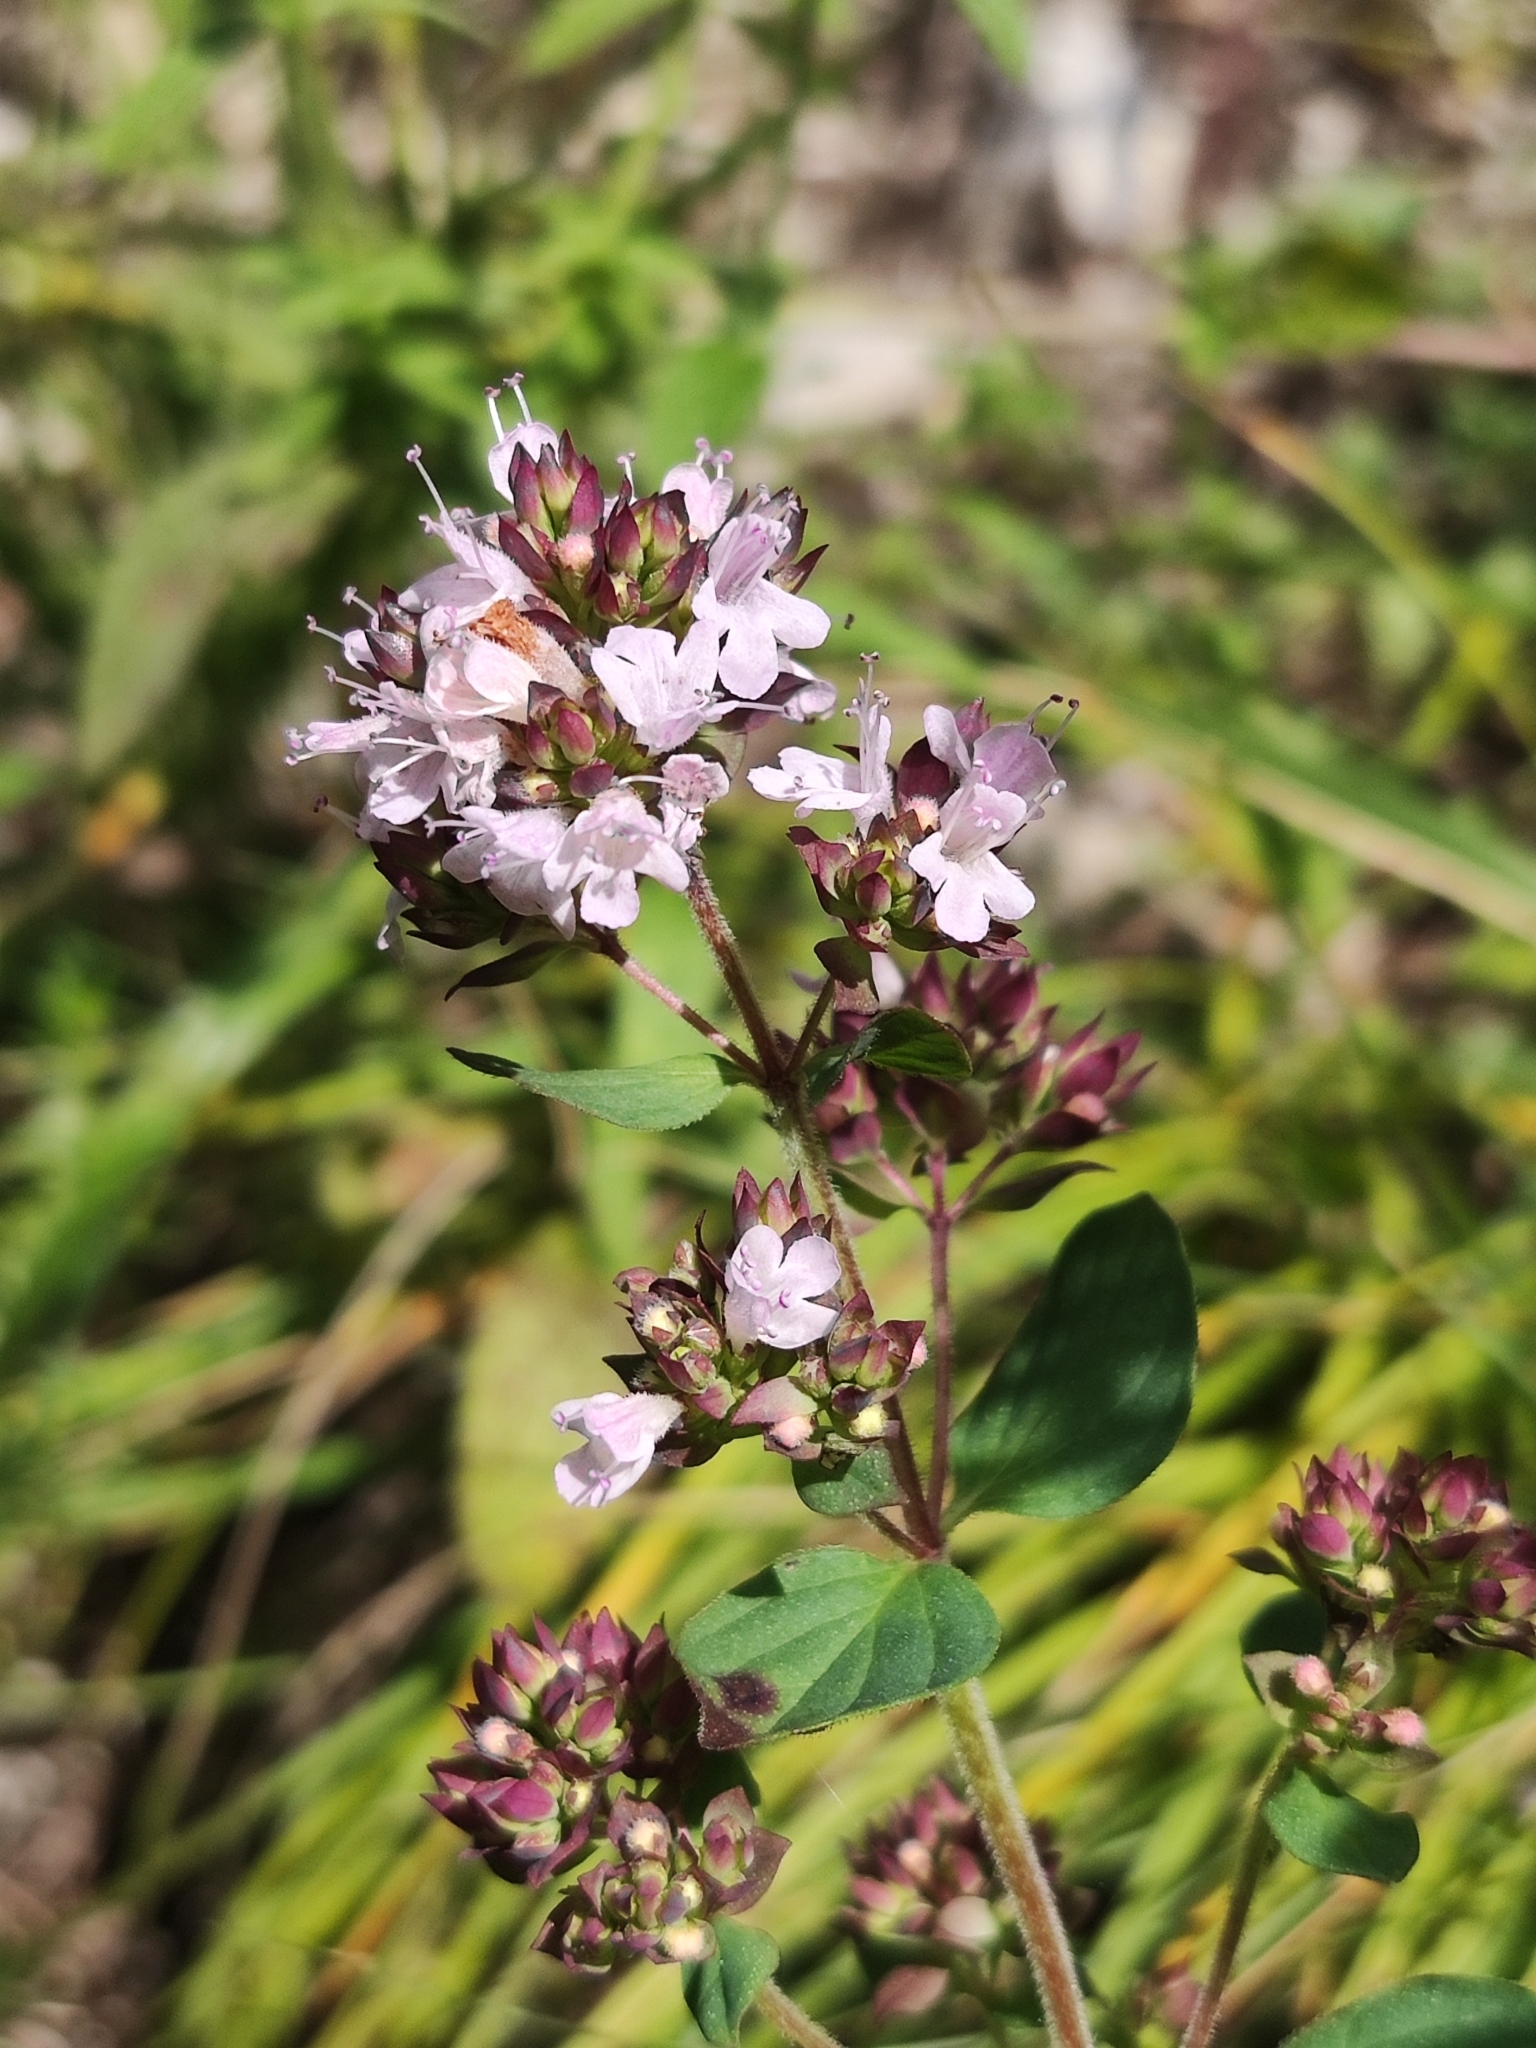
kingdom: Plantae
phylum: Tracheophyta
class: Magnoliopsida
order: Lamiales
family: Lamiaceae
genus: Origanum
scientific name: Origanum vulgare
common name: Wild marjoram
